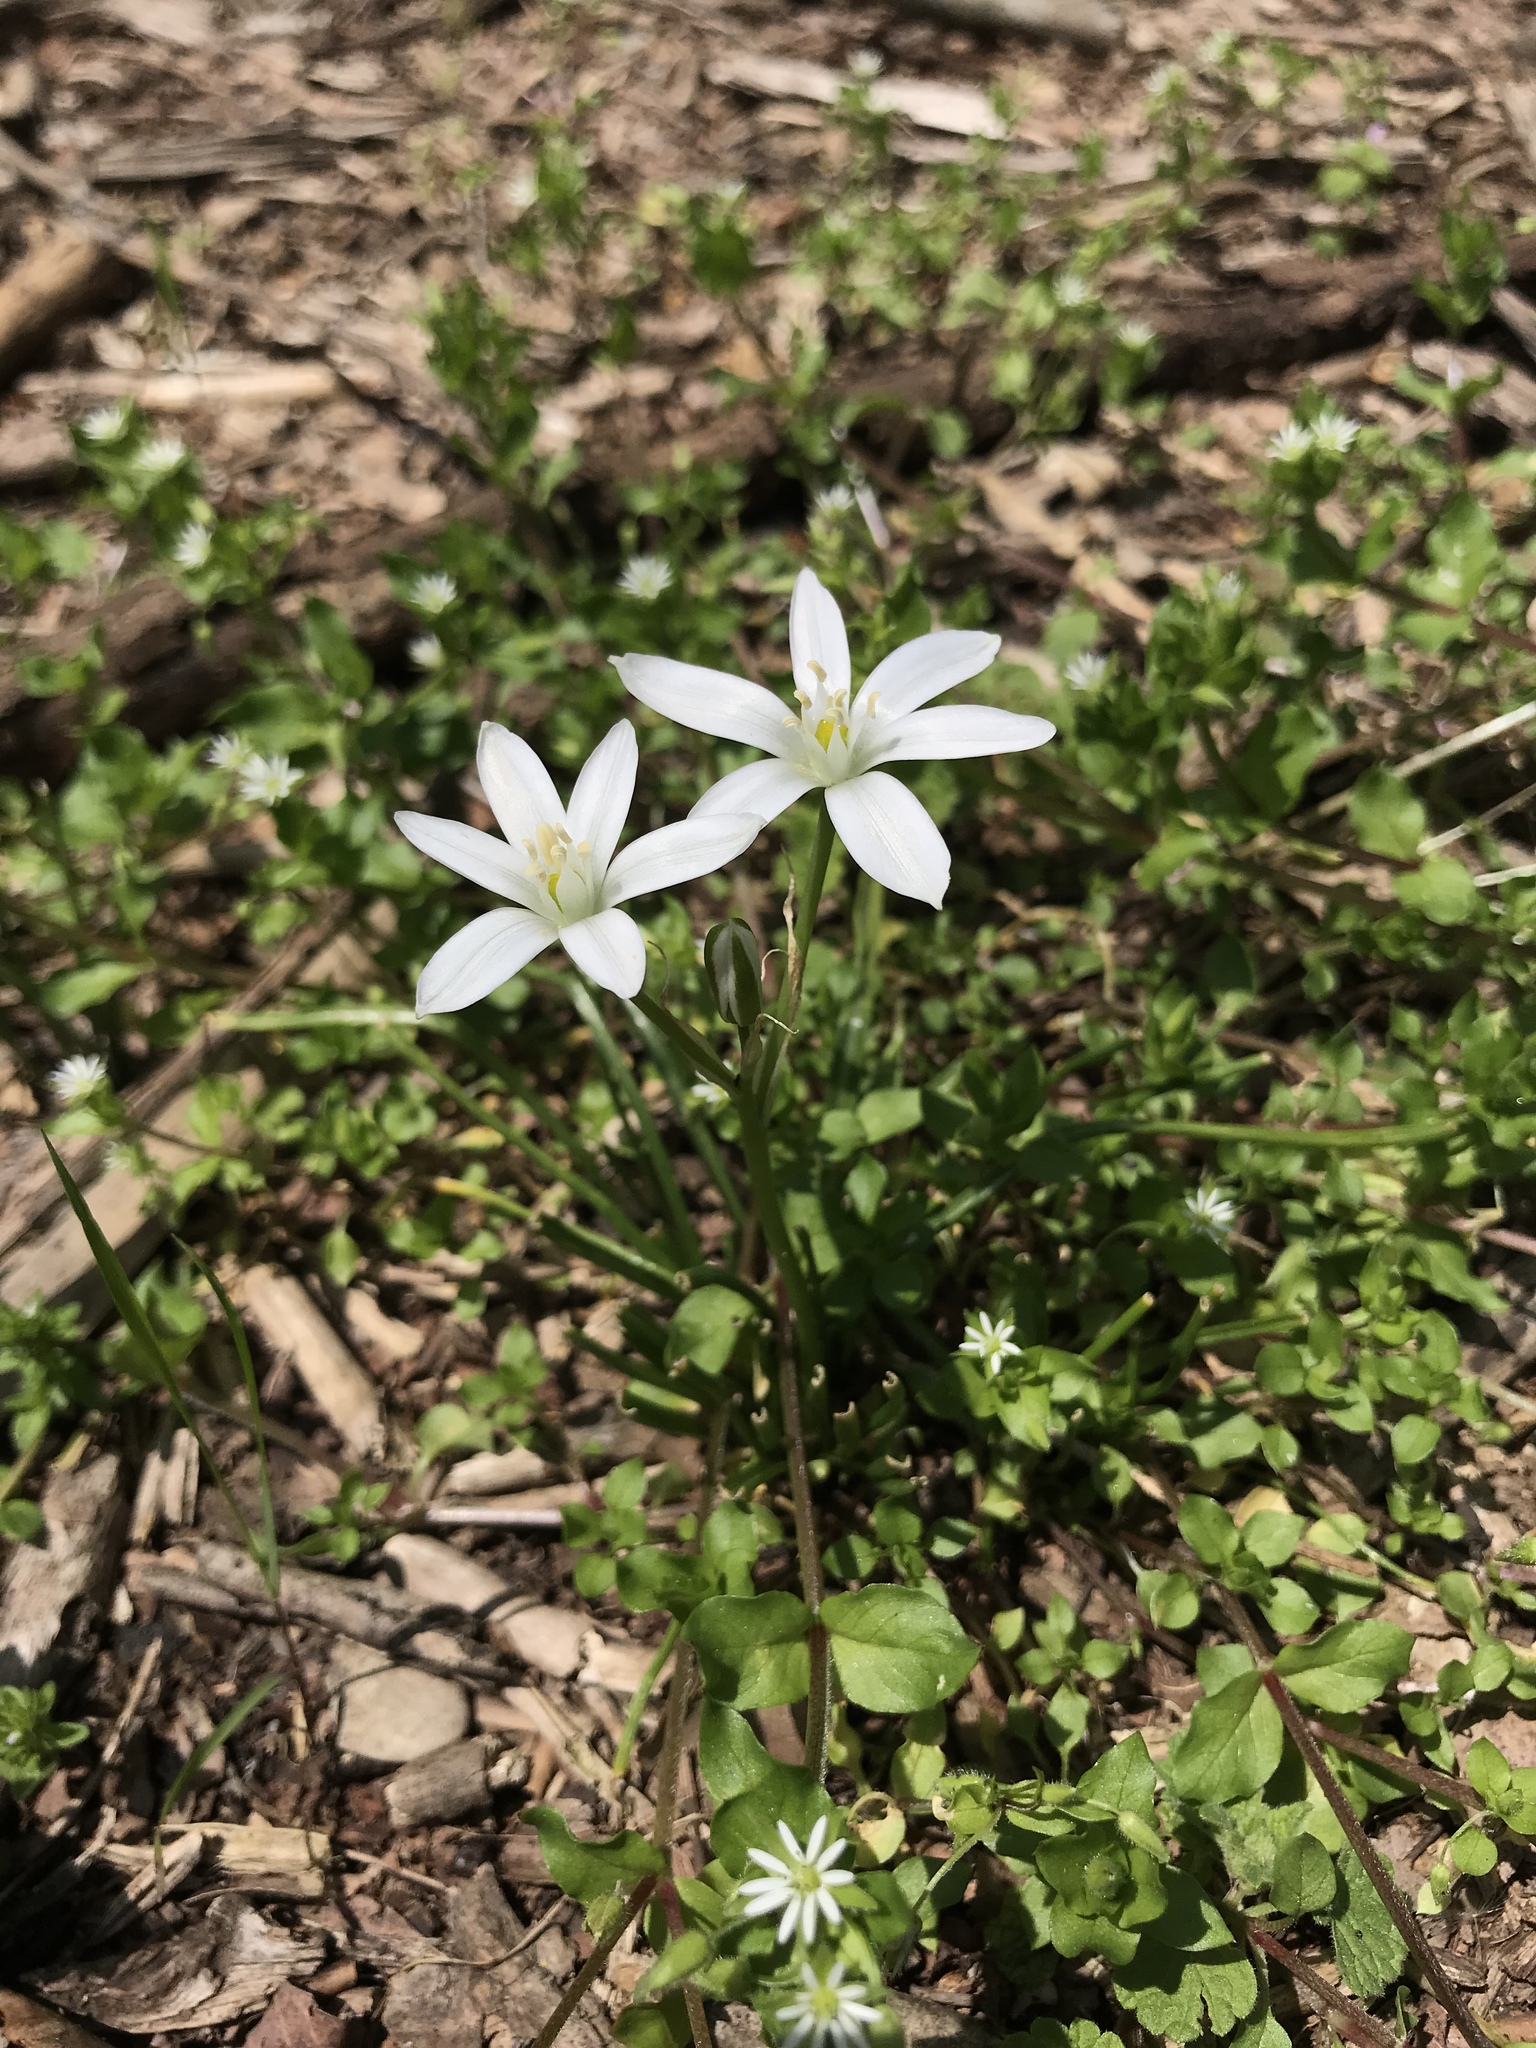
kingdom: Plantae
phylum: Tracheophyta
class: Liliopsida
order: Asparagales
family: Asparagaceae
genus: Ornithogalum
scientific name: Ornithogalum umbellatum
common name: Garden star-of-bethlehem
